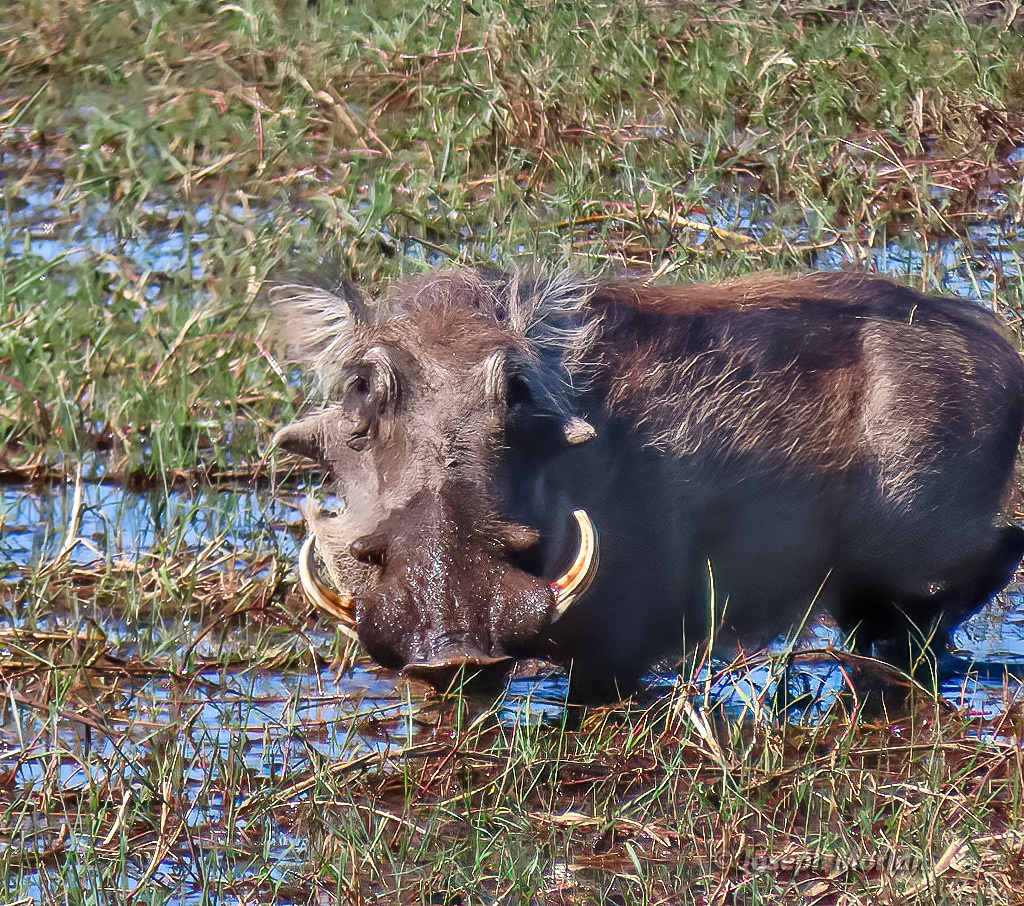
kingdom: Animalia
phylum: Chordata
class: Mammalia
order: Artiodactyla
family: Suidae
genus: Phacochoerus
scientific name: Phacochoerus africanus
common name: Common warthog
